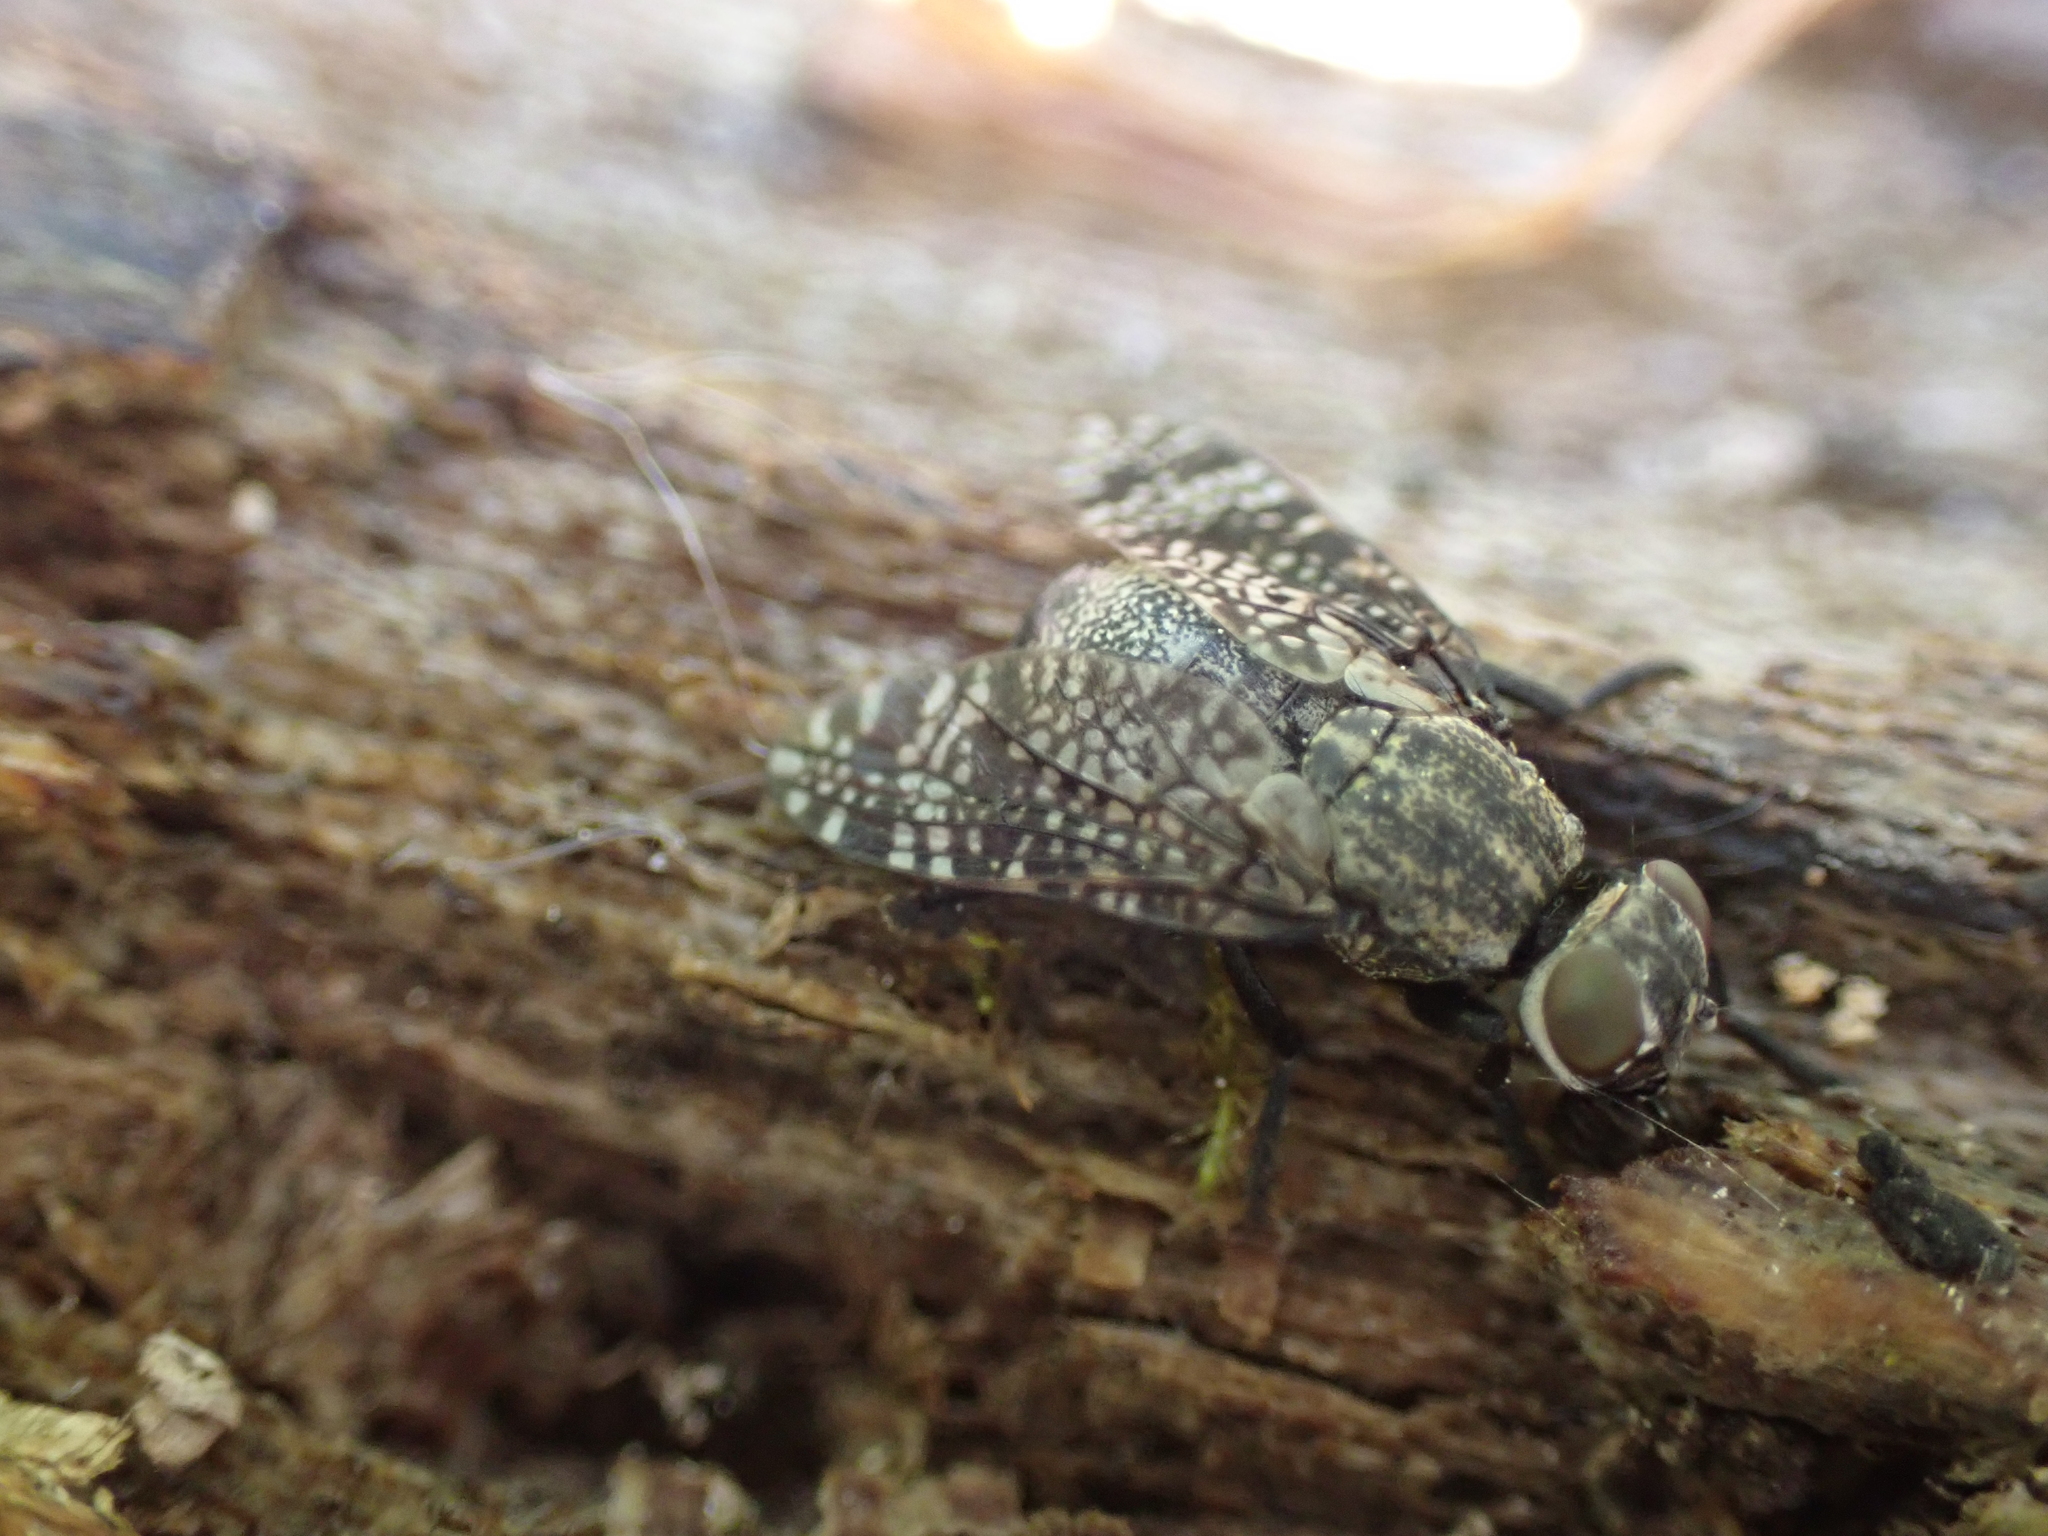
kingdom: Animalia
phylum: Arthropoda
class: Insecta
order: Diptera
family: Platystomatidae
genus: Platystoma
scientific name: Platystoma seminationis
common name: Fly
